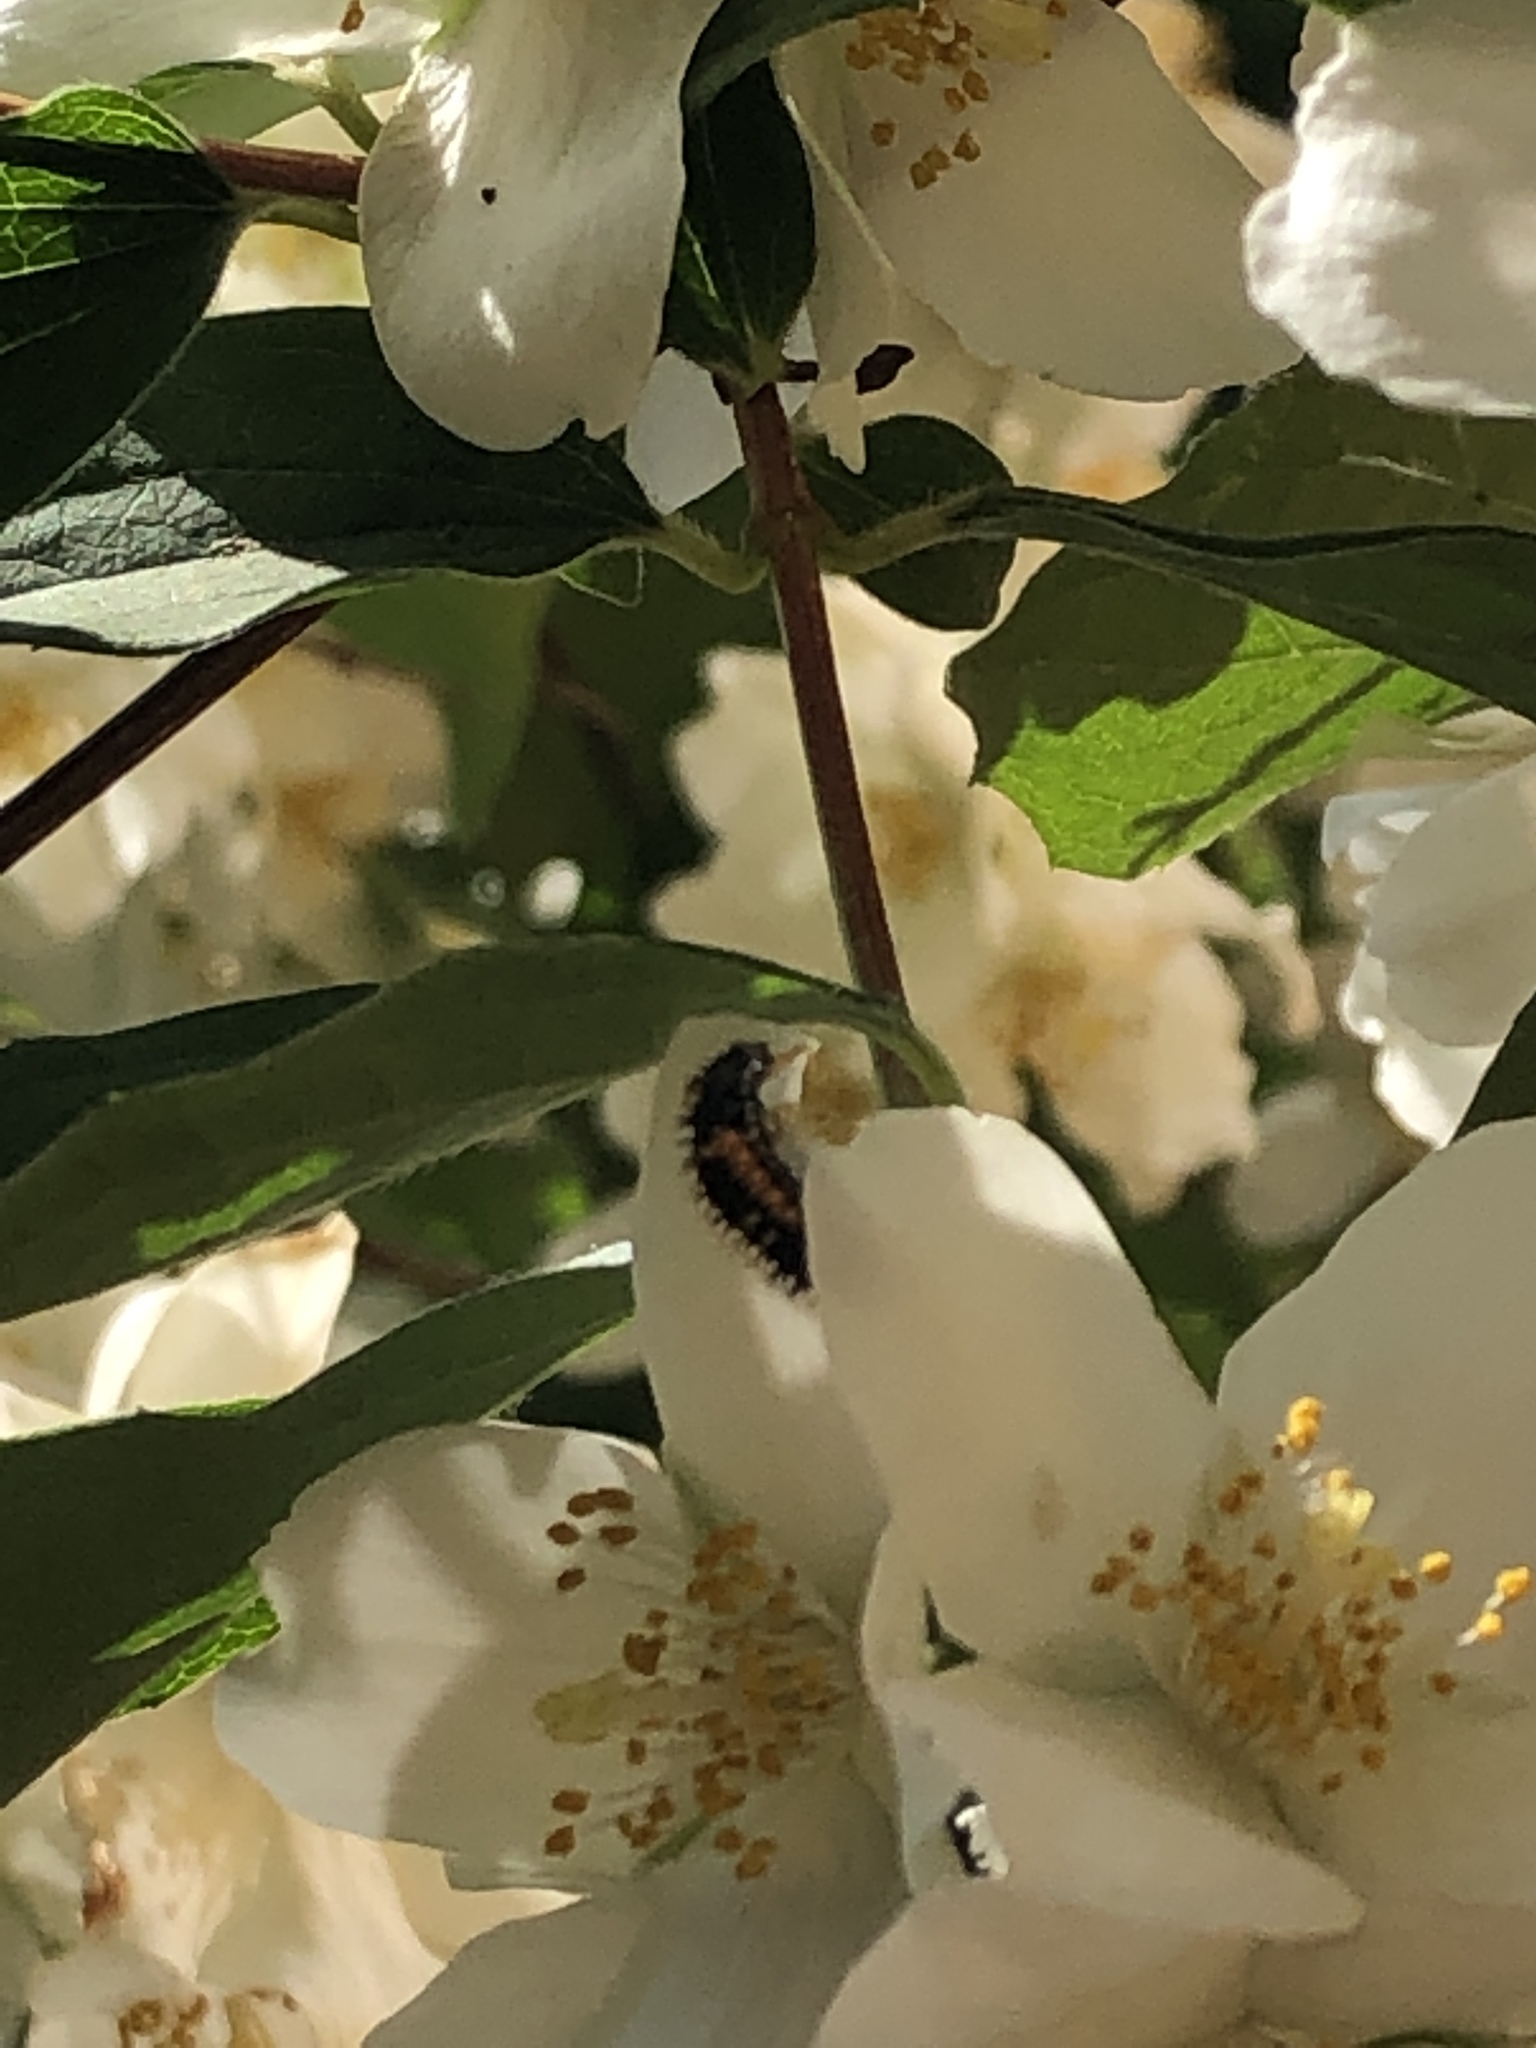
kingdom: Animalia
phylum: Arthropoda
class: Insecta
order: Coleoptera
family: Coccinellidae
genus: Harmonia
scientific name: Harmonia axyridis
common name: Harlequin ladybird
